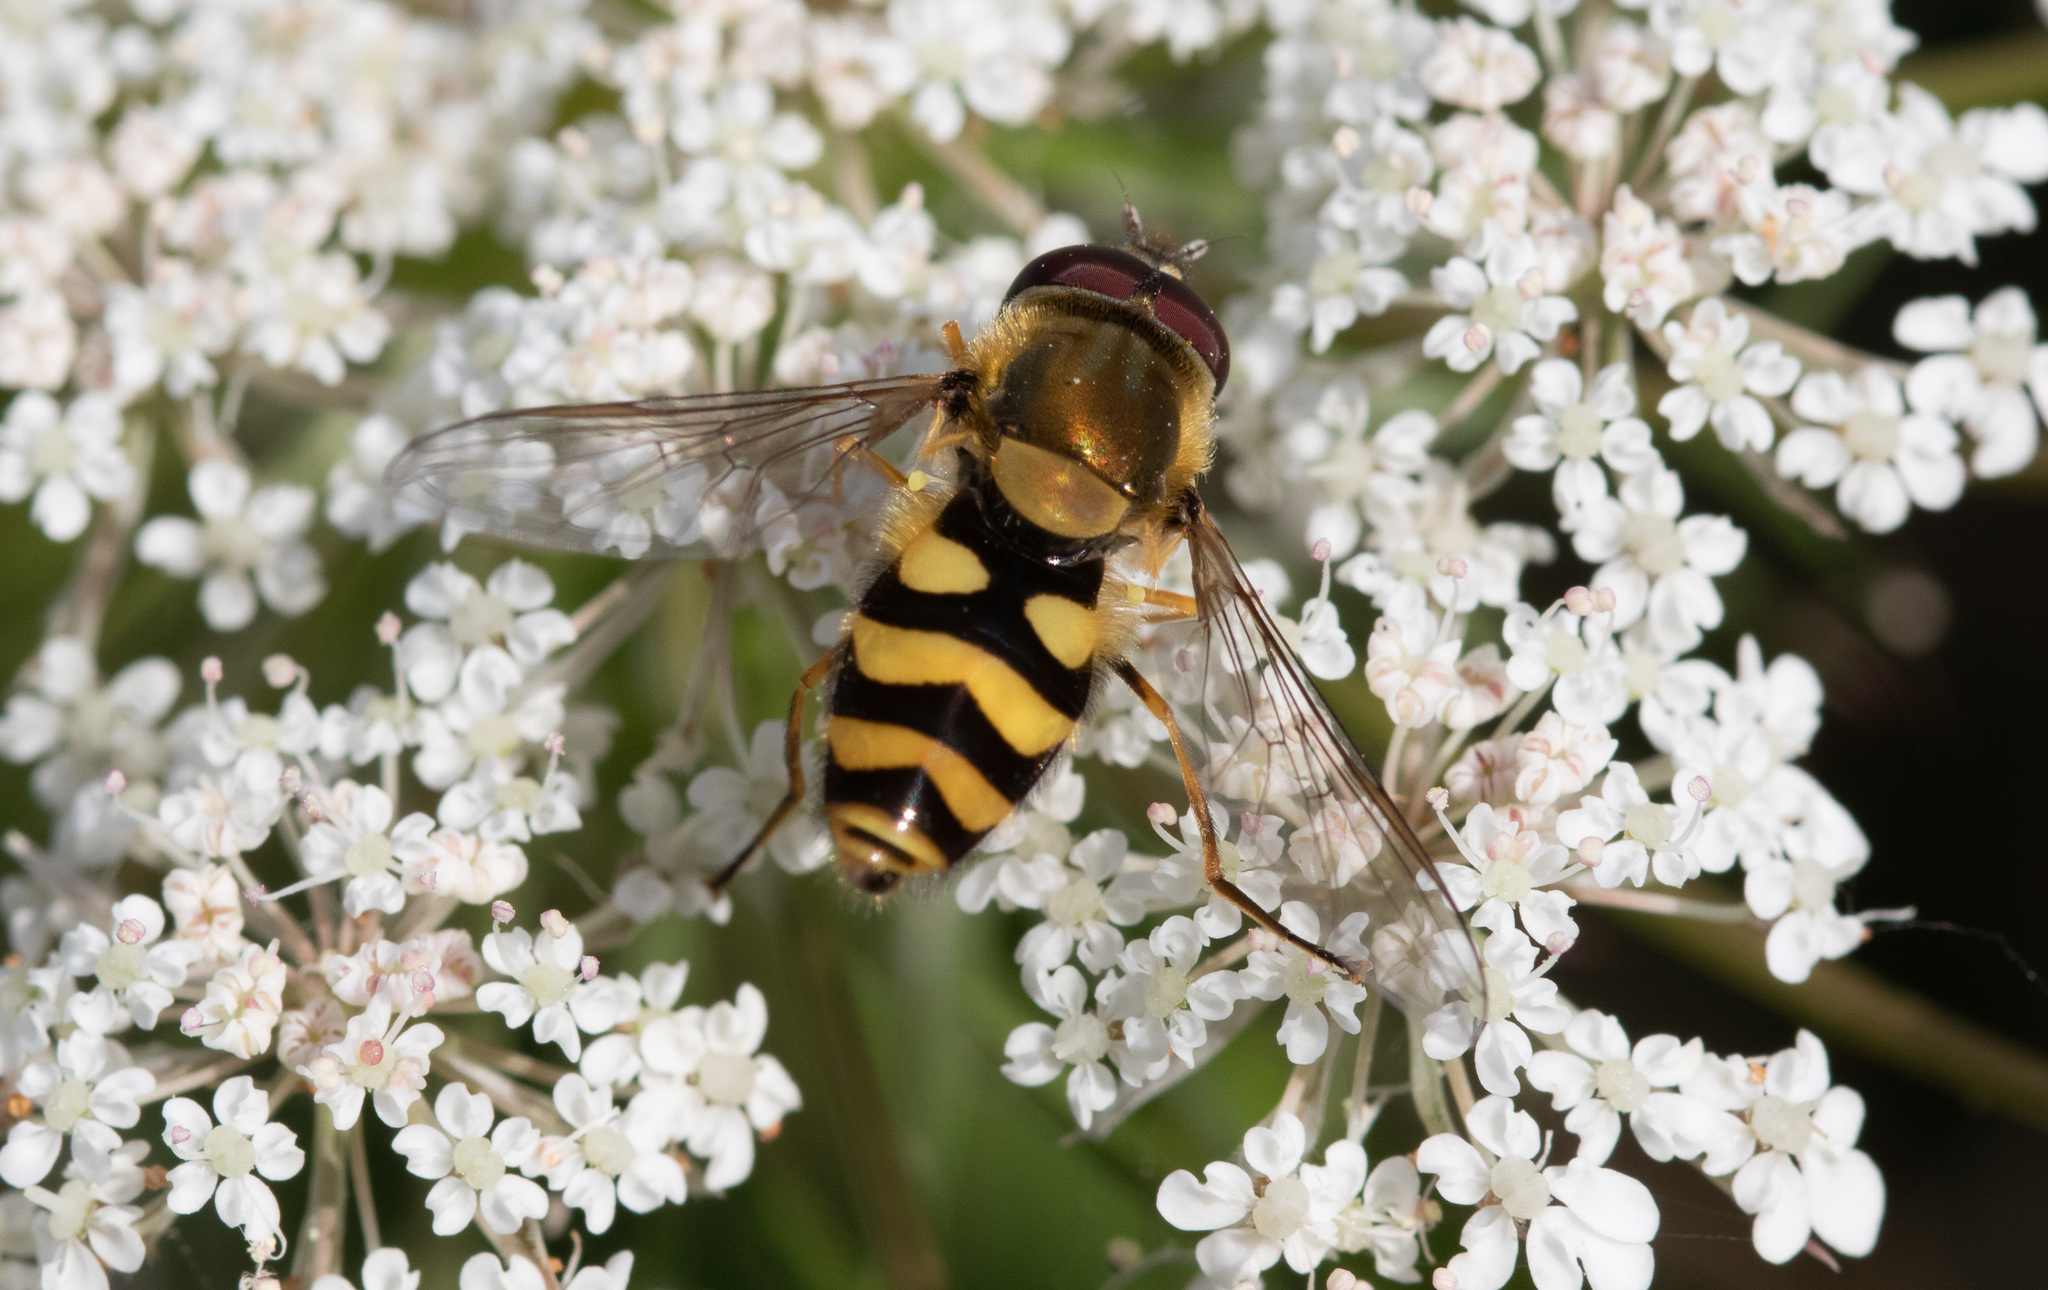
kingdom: Animalia
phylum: Arthropoda
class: Insecta
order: Diptera
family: Syrphidae
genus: Syrphus
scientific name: Syrphus
